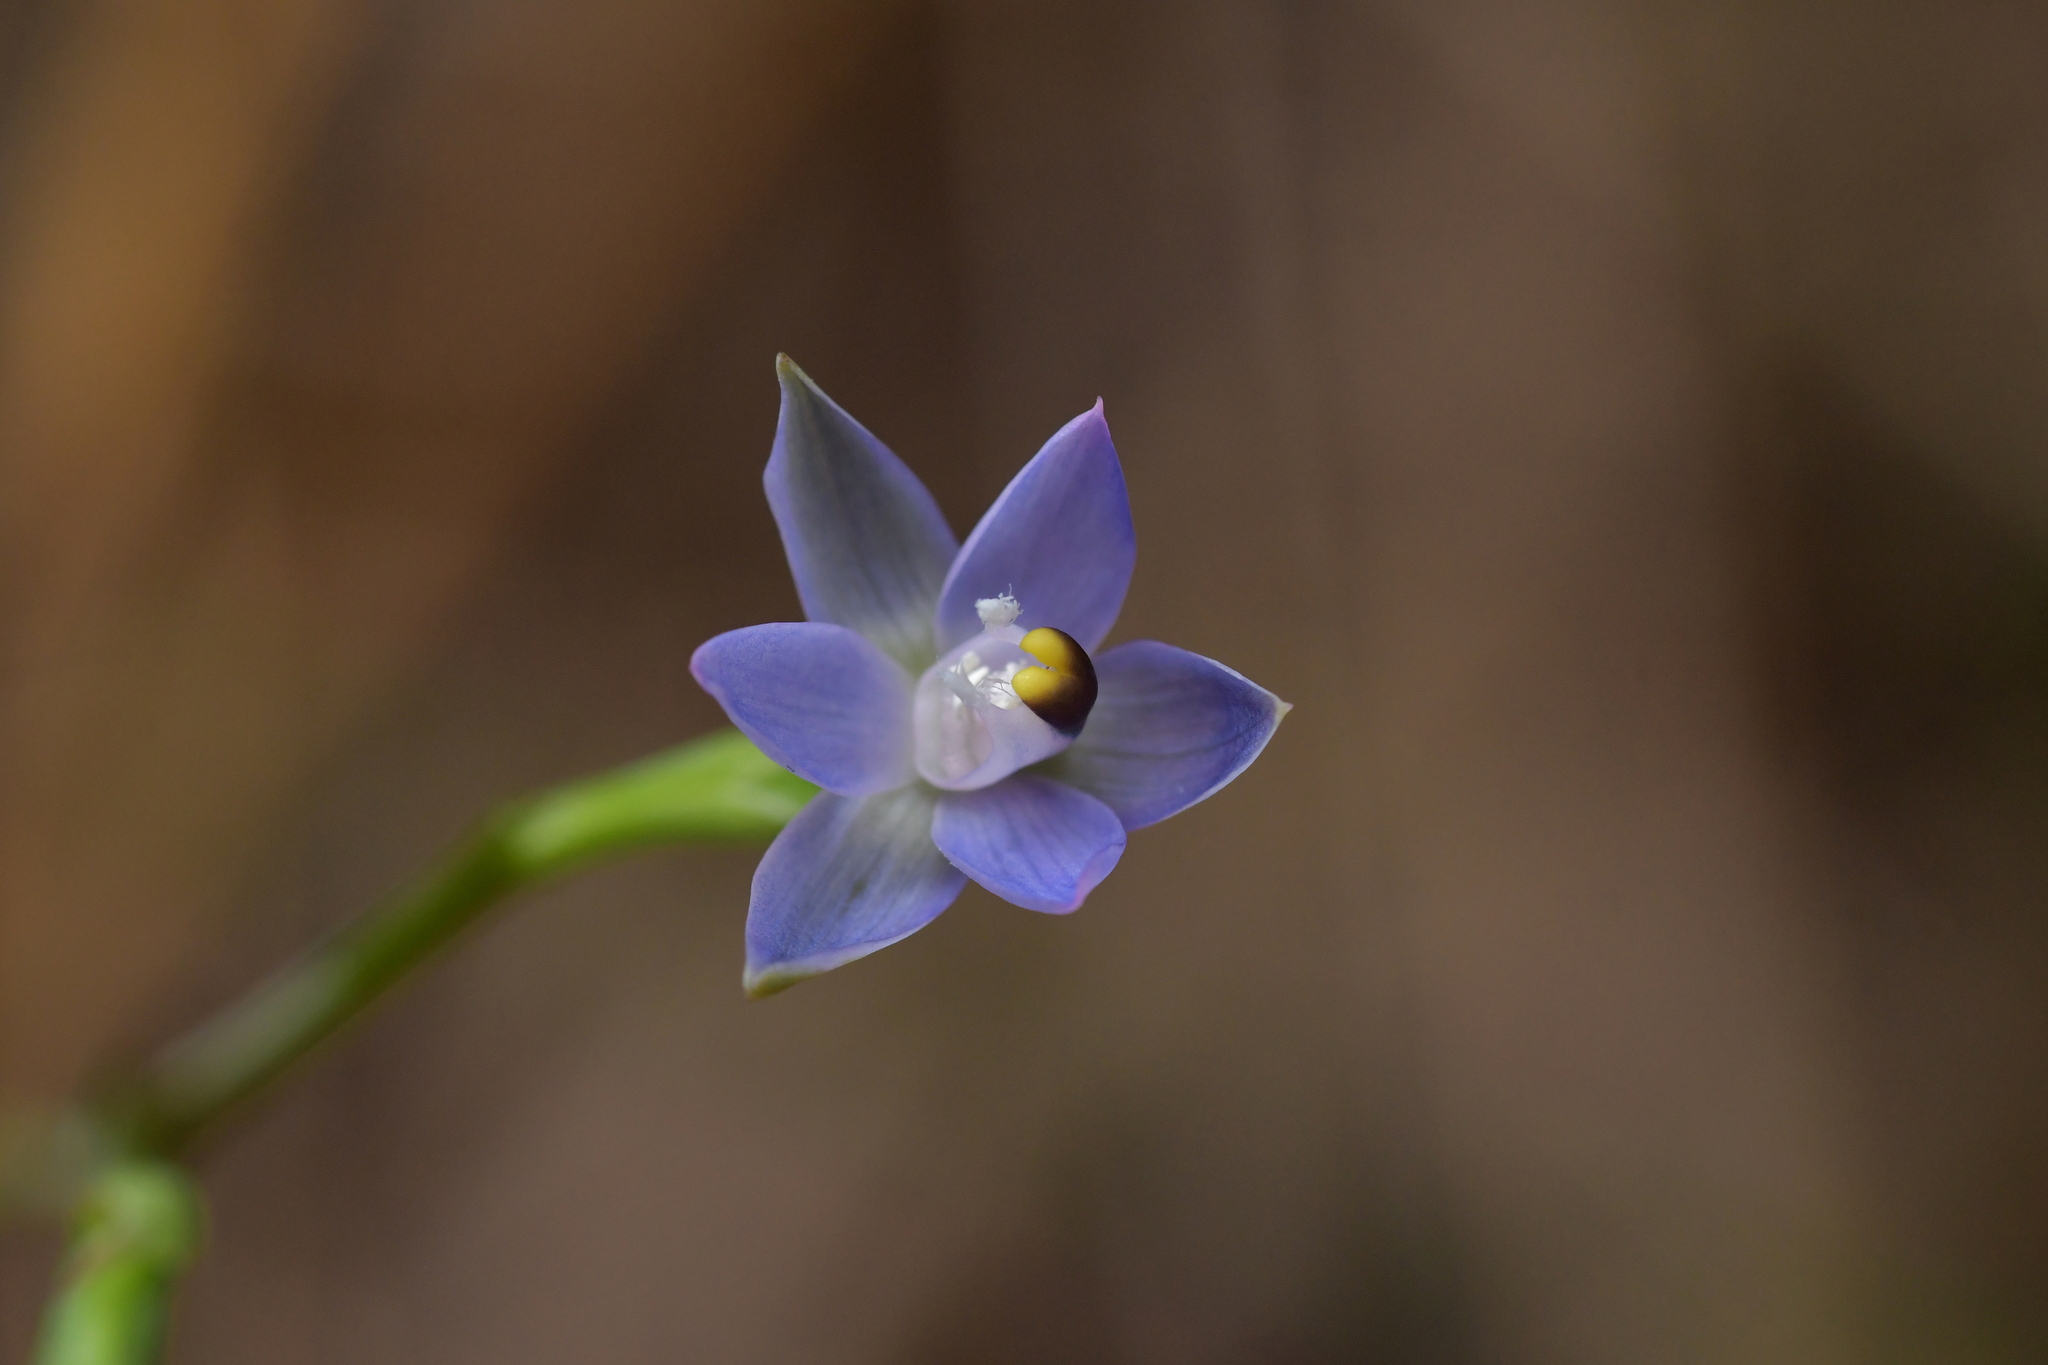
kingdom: Plantae
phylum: Tracheophyta
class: Liliopsida
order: Asparagales
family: Orchidaceae
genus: Thelymitra
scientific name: Thelymitra pauciflora
